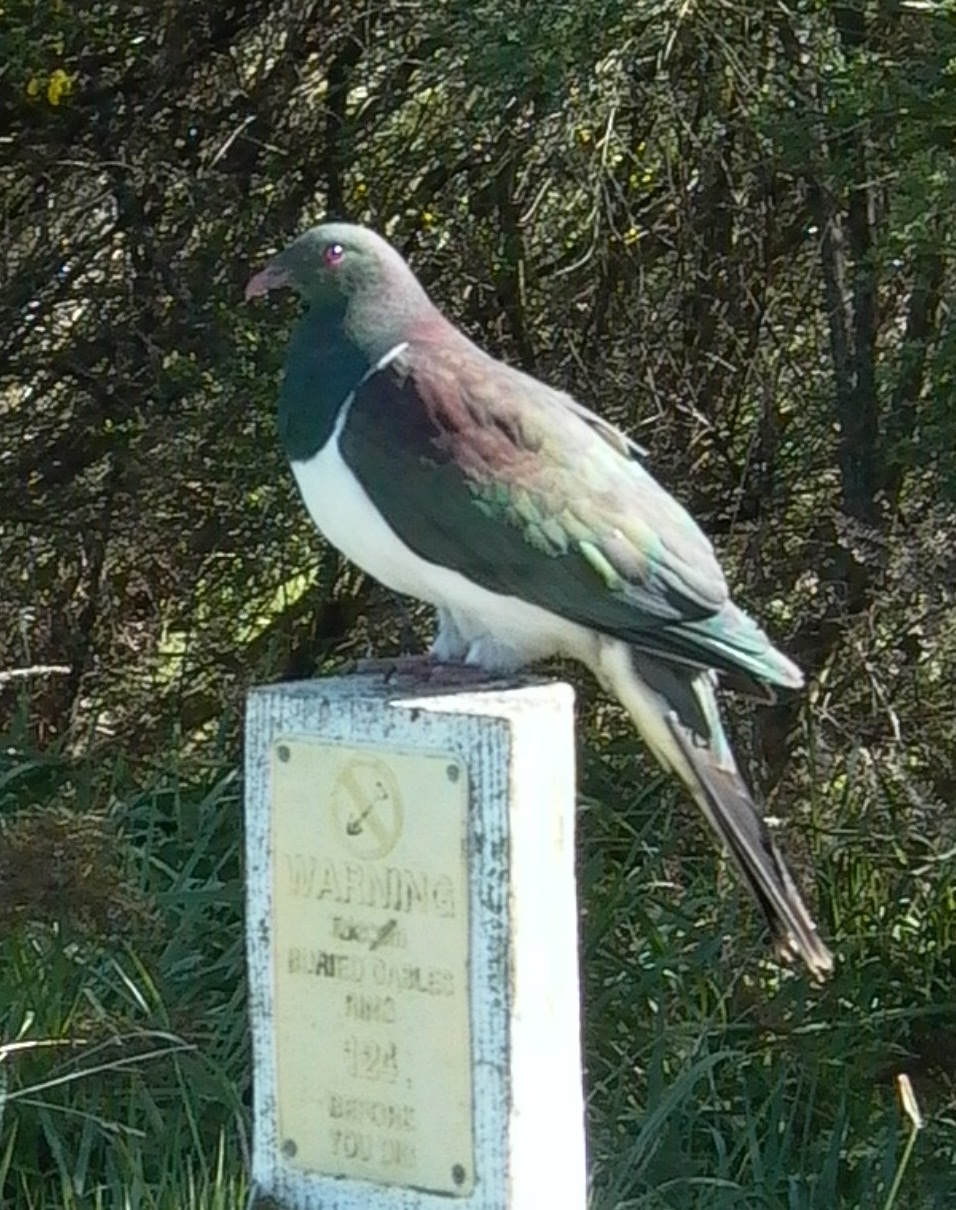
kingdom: Animalia
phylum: Chordata
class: Aves
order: Columbiformes
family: Columbidae
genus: Hemiphaga
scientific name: Hemiphaga novaeseelandiae
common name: New zealand pigeon
